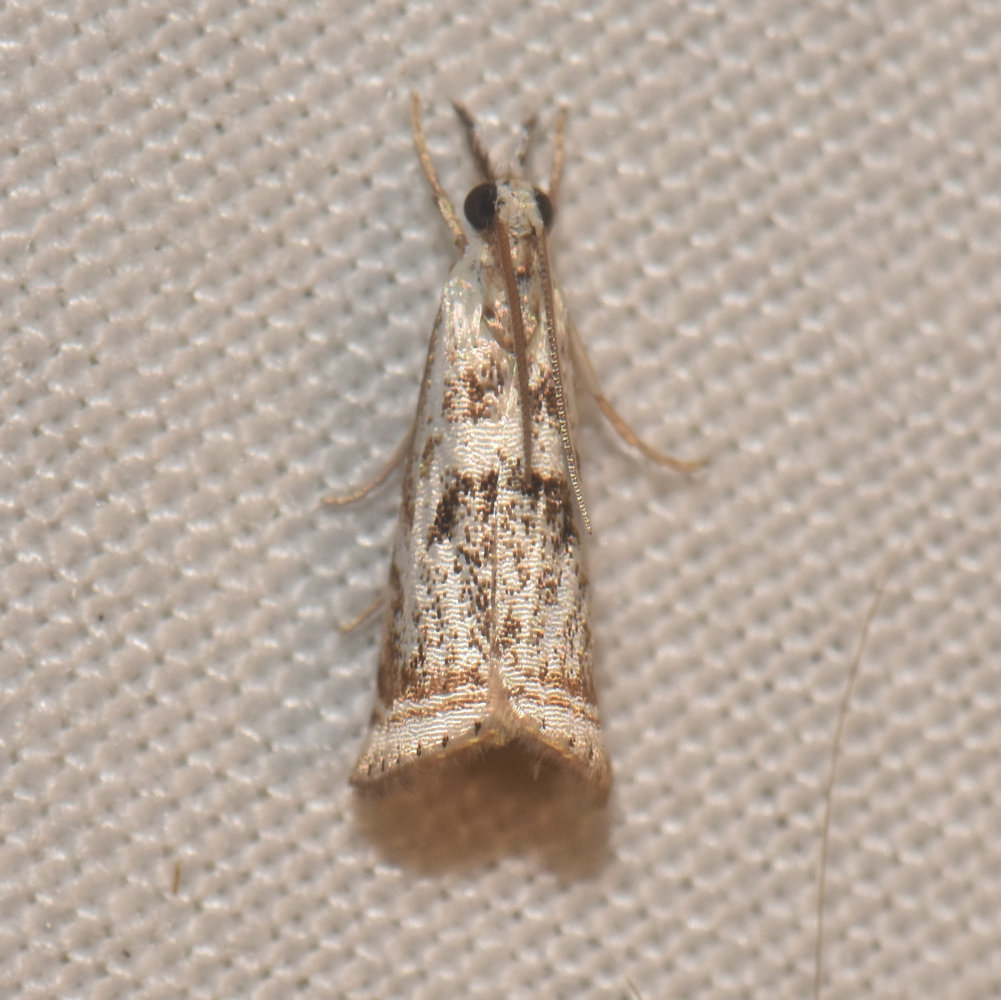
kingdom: Animalia
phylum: Arthropoda
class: Insecta
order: Lepidoptera
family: Crambidae
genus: Microcrambus
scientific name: Microcrambus elegans
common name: Elegant grass-veneer
